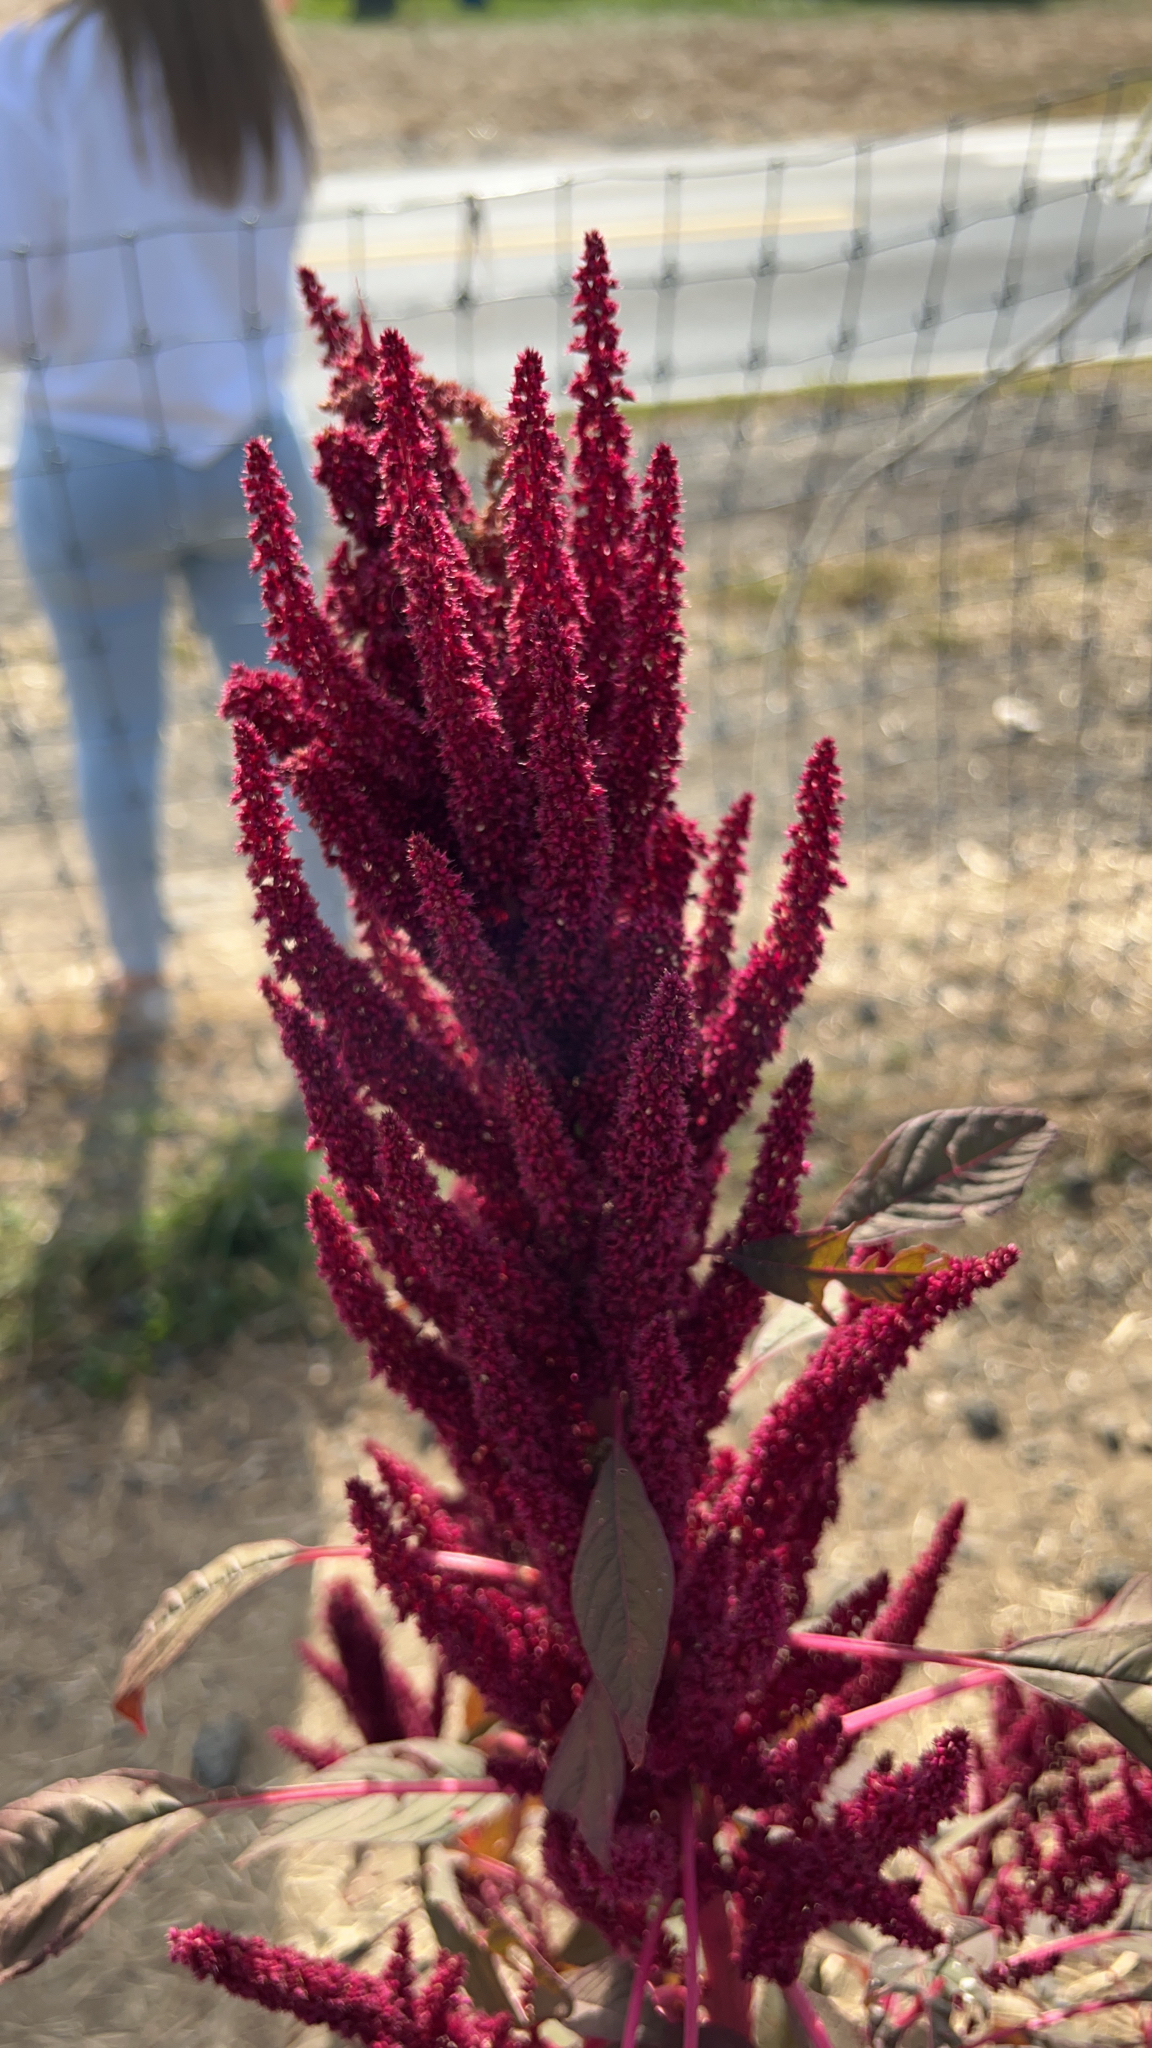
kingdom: Plantae
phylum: Tracheophyta
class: Magnoliopsida
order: Caryophyllales
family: Amaranthaceae
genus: Amaranthus
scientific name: Amaranthus cruentus
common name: Purple amaranth
